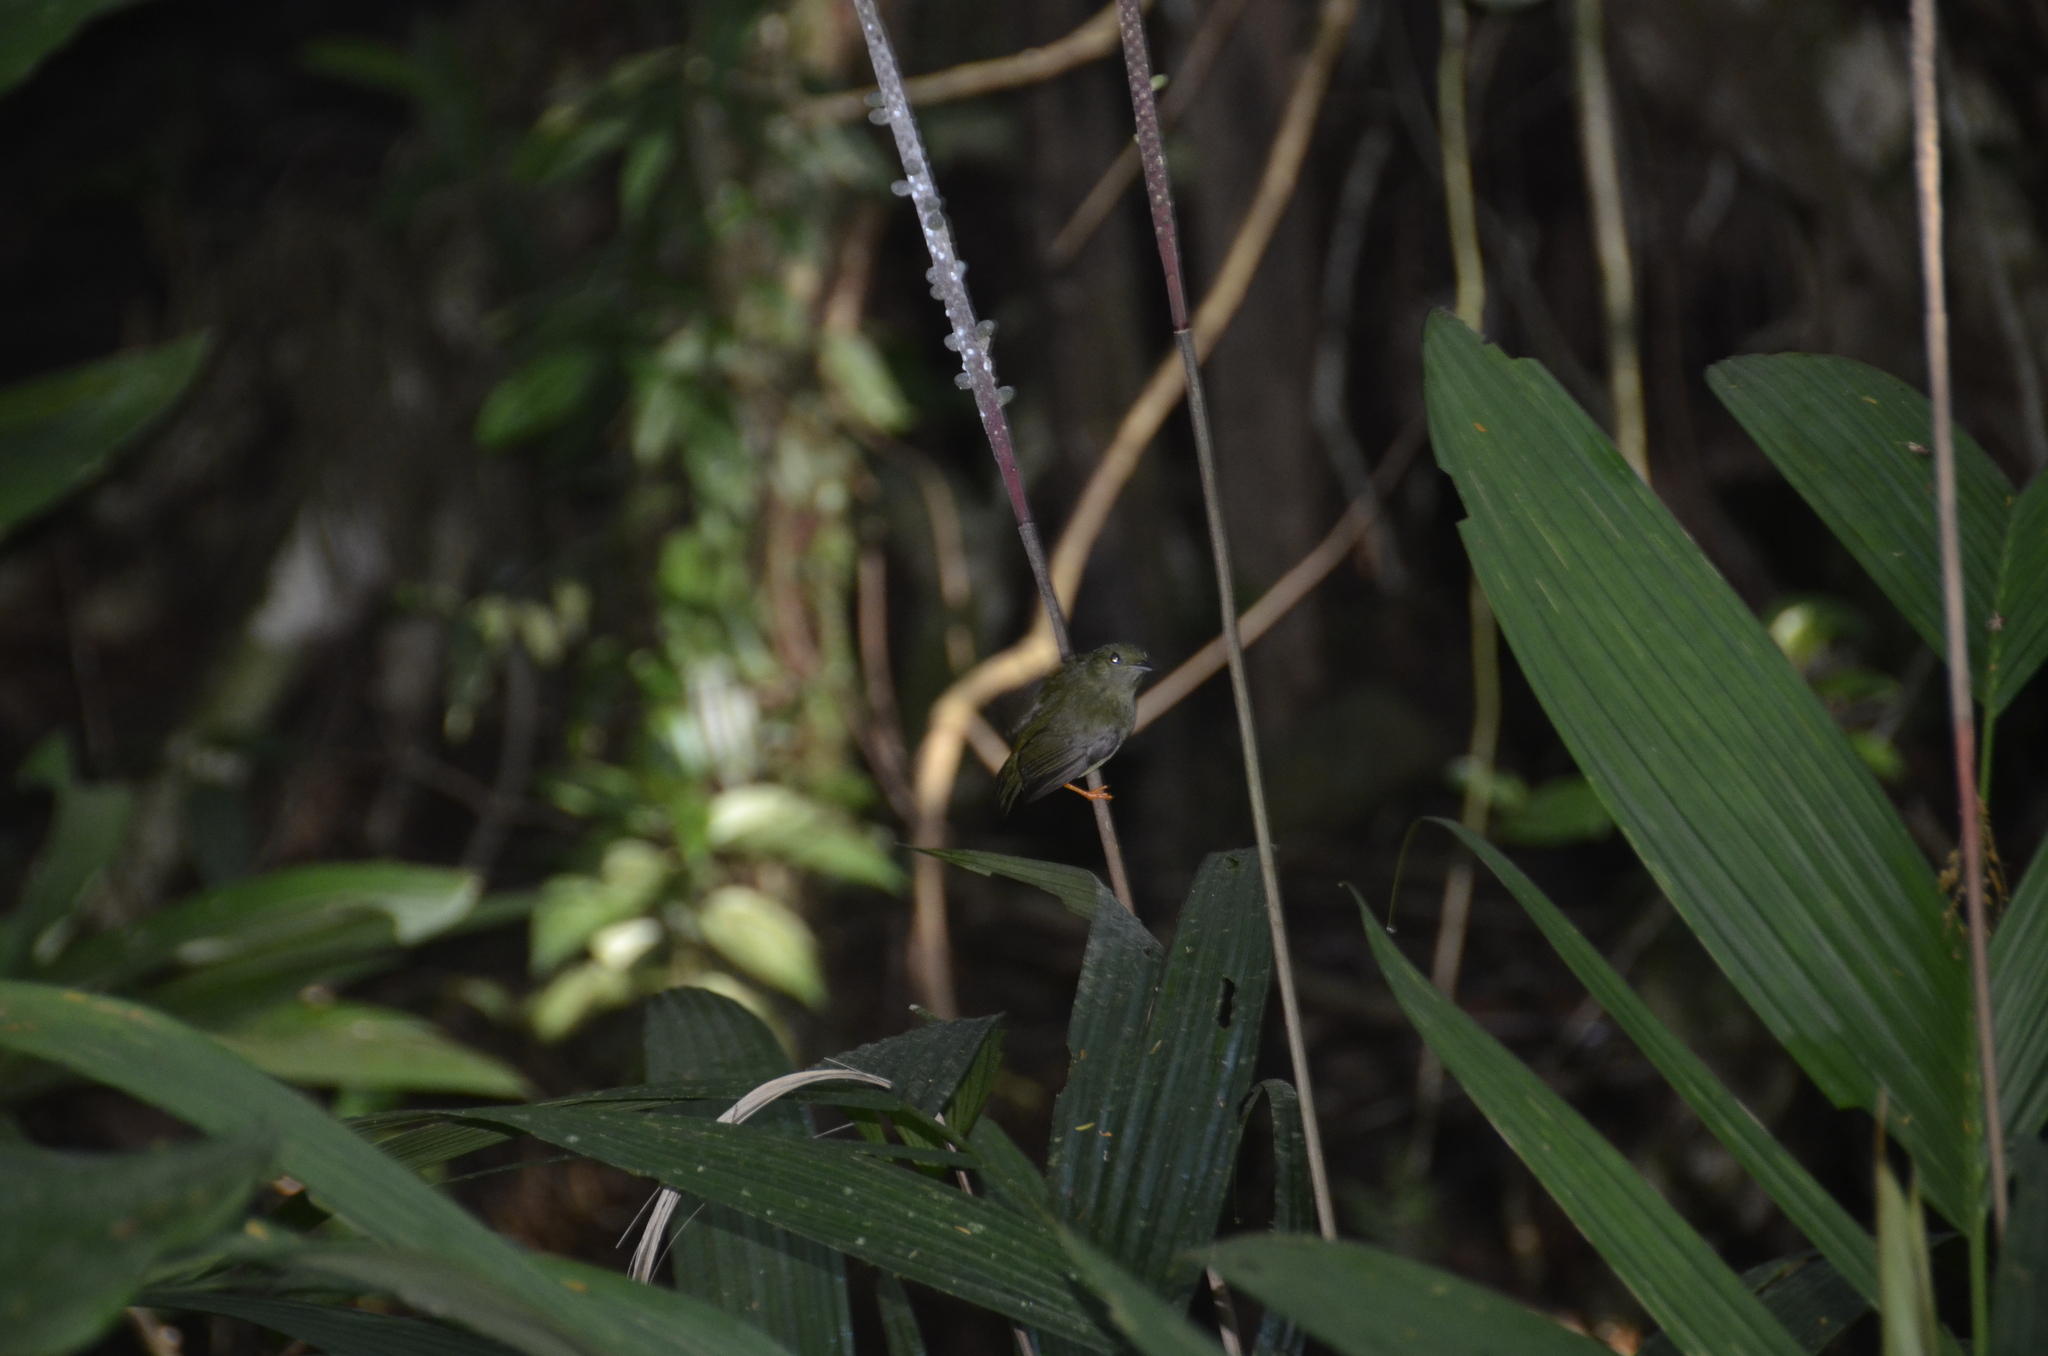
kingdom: Animalia
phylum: Chordata
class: Aves
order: Passeriformes
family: Pipridae
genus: Manacus
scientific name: Manacus candei
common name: White-collared manakin
